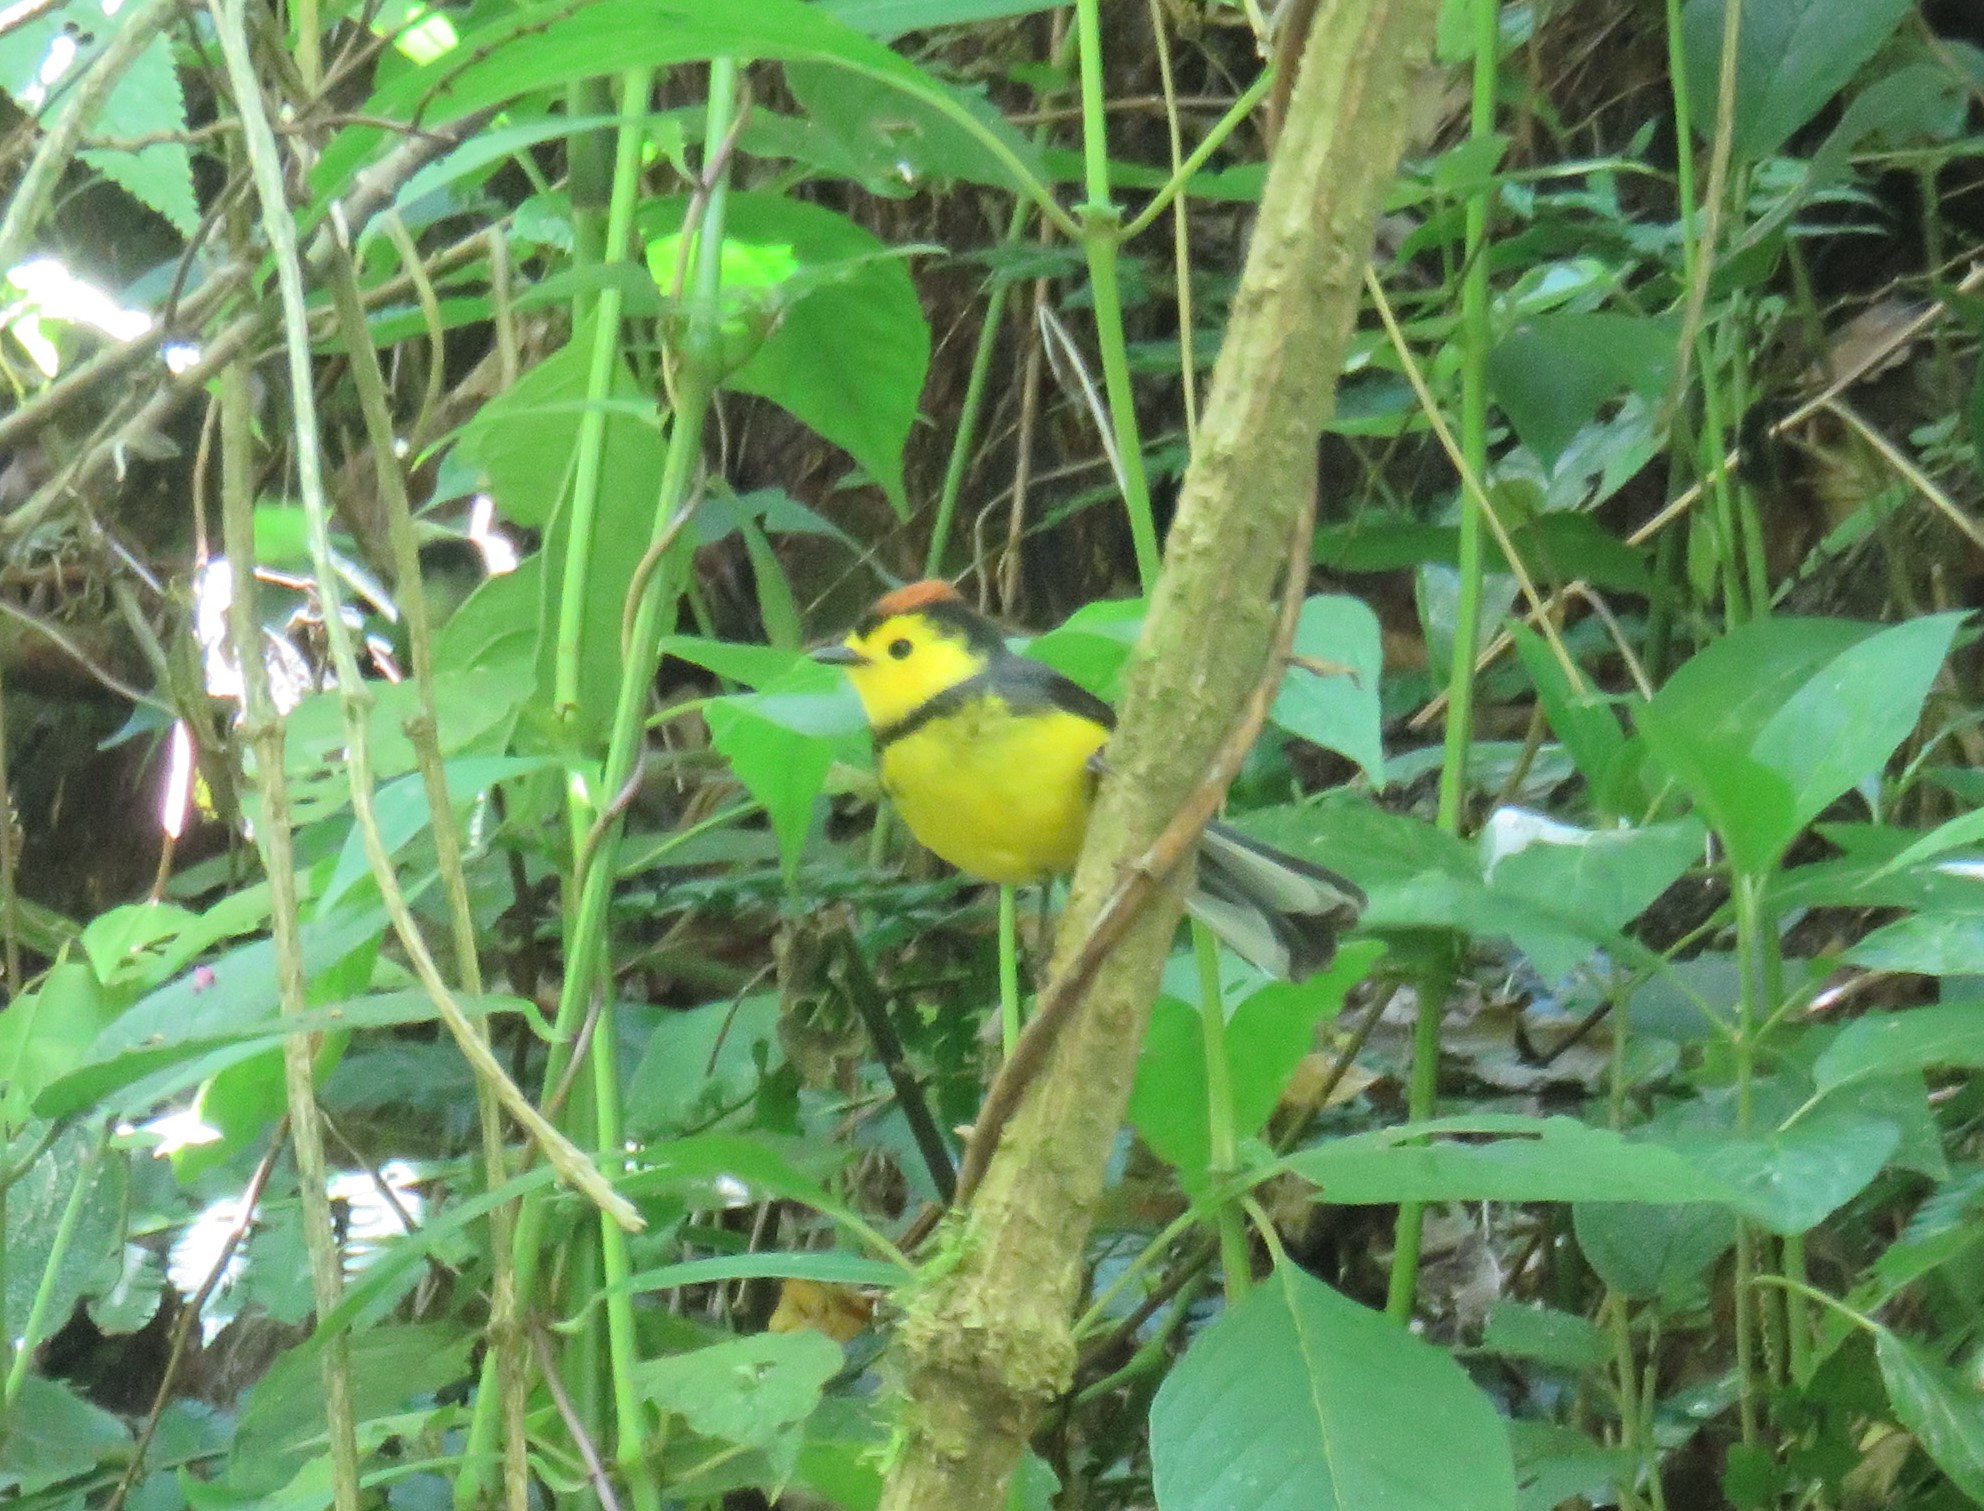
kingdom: Animalia
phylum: Chordata
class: Aves
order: Passeriformes
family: Parulidae
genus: Myioborus
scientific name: Myioborus torquatus
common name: Collared whitestart
